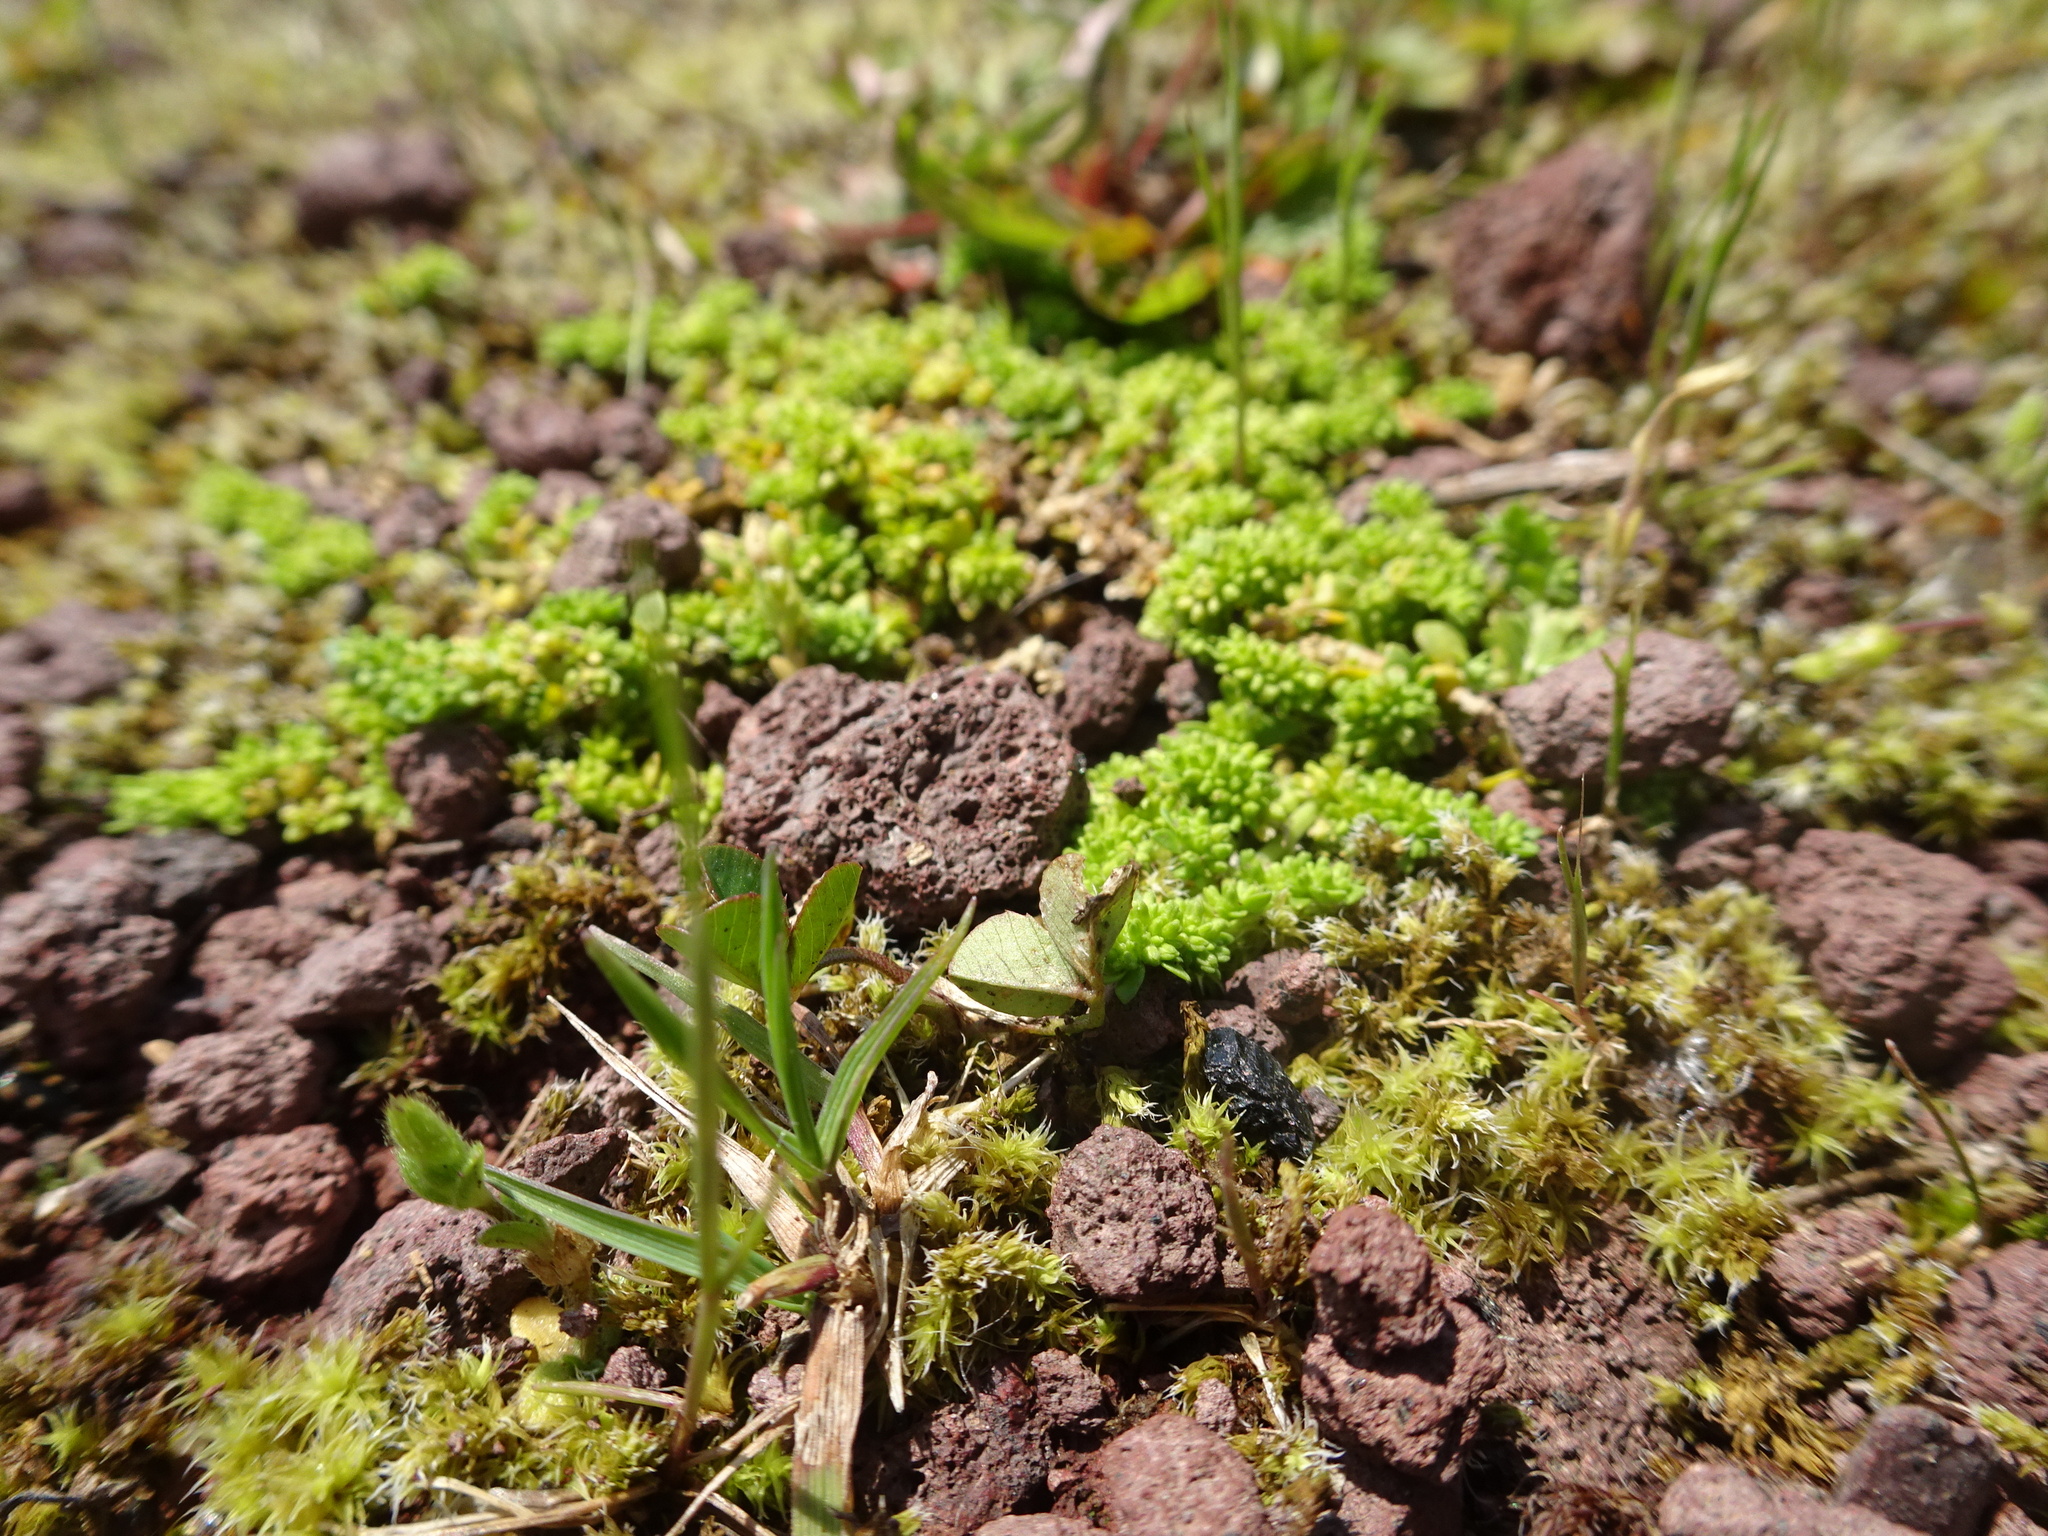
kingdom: Plantae
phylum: Tracheophyta
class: Magnoliopsida
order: Caryophyllales
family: Caryophyllaceae
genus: Herniaria
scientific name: Herniaria glabra
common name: Smooth rupturewort
